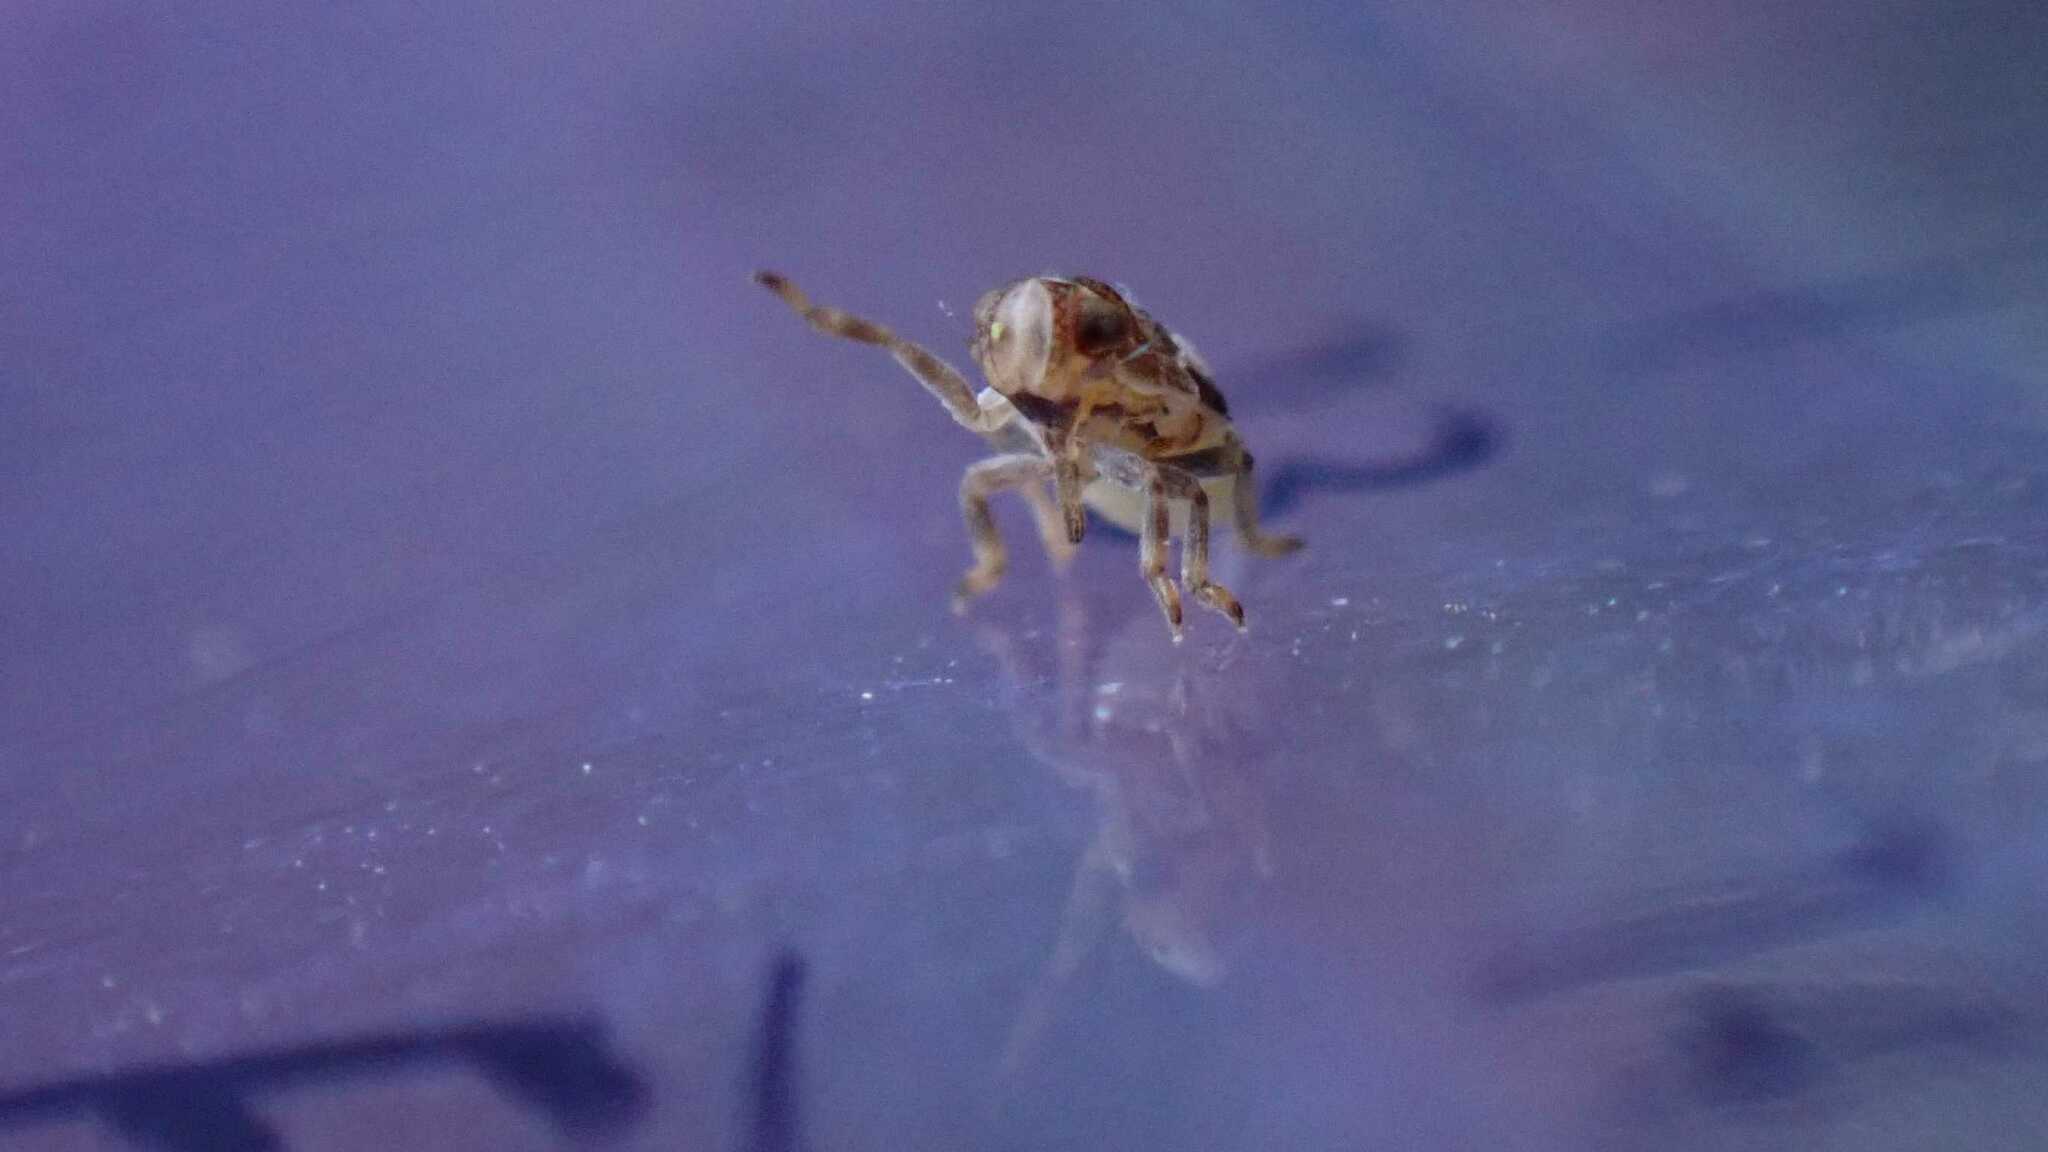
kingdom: Animalia
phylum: Arthropoda
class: Insecta
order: Hemiptera
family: Issidae
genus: Issus
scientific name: Issus coleoptratus
